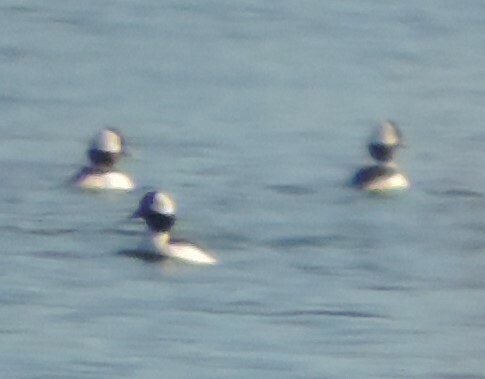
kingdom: Animalia
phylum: Chordata
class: Aves
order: Anseriformes
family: Anatidae
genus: Bucephala
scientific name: Bucephala albeola
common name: Bufflehead
